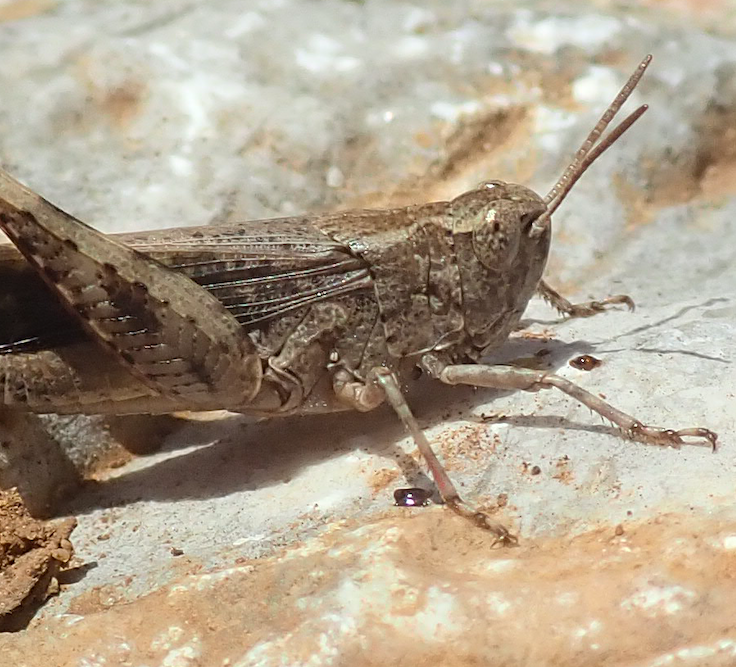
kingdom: Animalia
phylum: Arthropoda
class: Insecta
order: Orthoptera
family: Acrididae
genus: Aiolopus
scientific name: Aiolopus strepens
